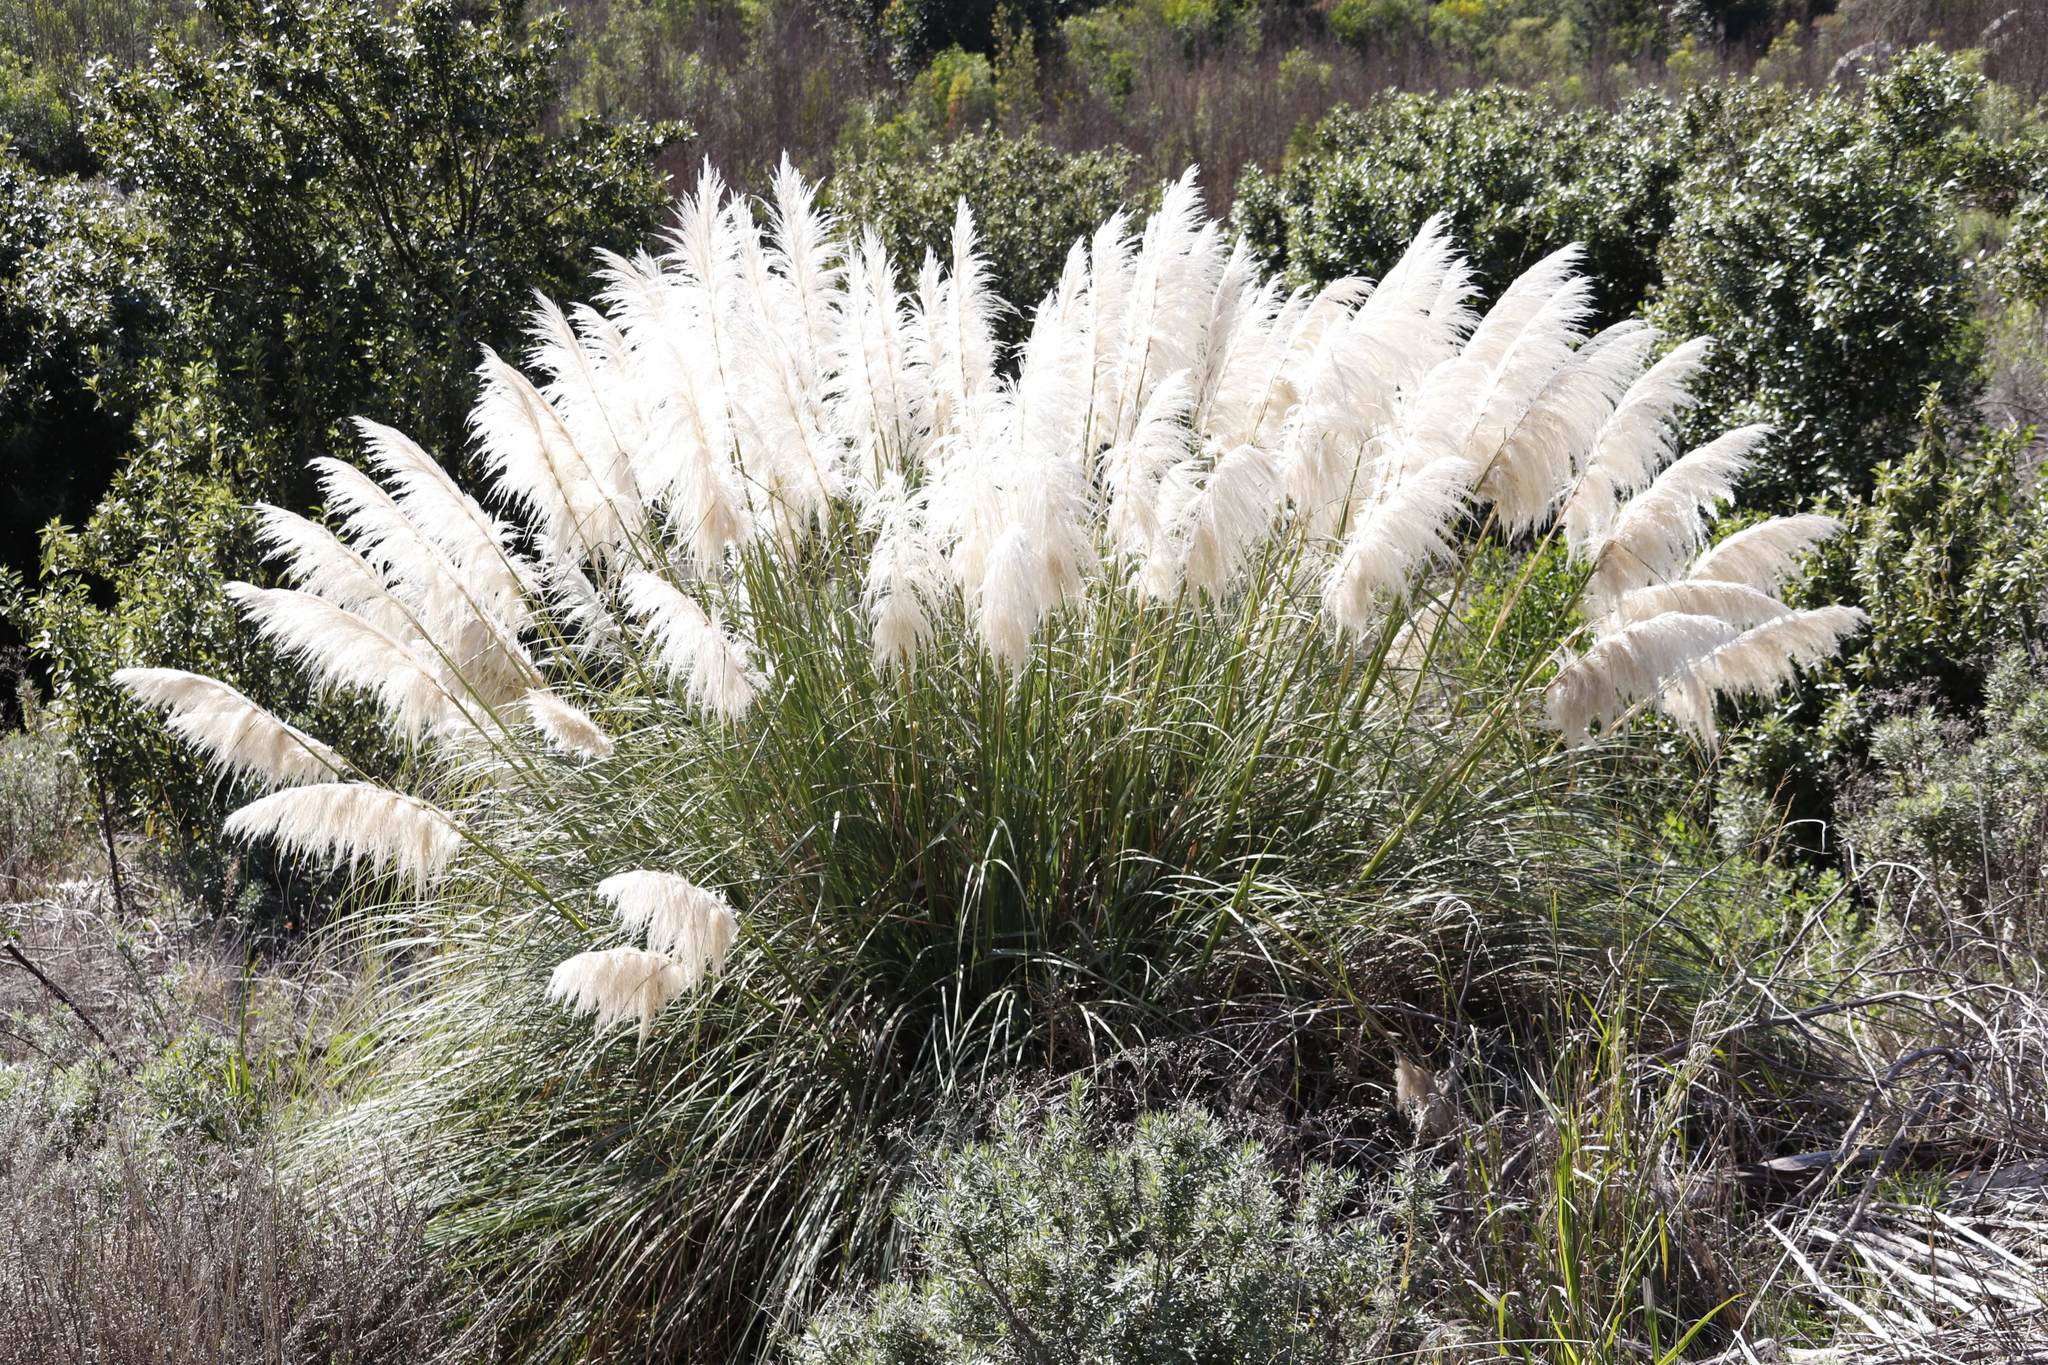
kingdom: Plantae
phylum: Tracheophyta
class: Liliopsida
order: Poales
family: Poaceae
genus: Cortaderia
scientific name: Cortaderia selloana
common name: Uruguayan pampas grass
